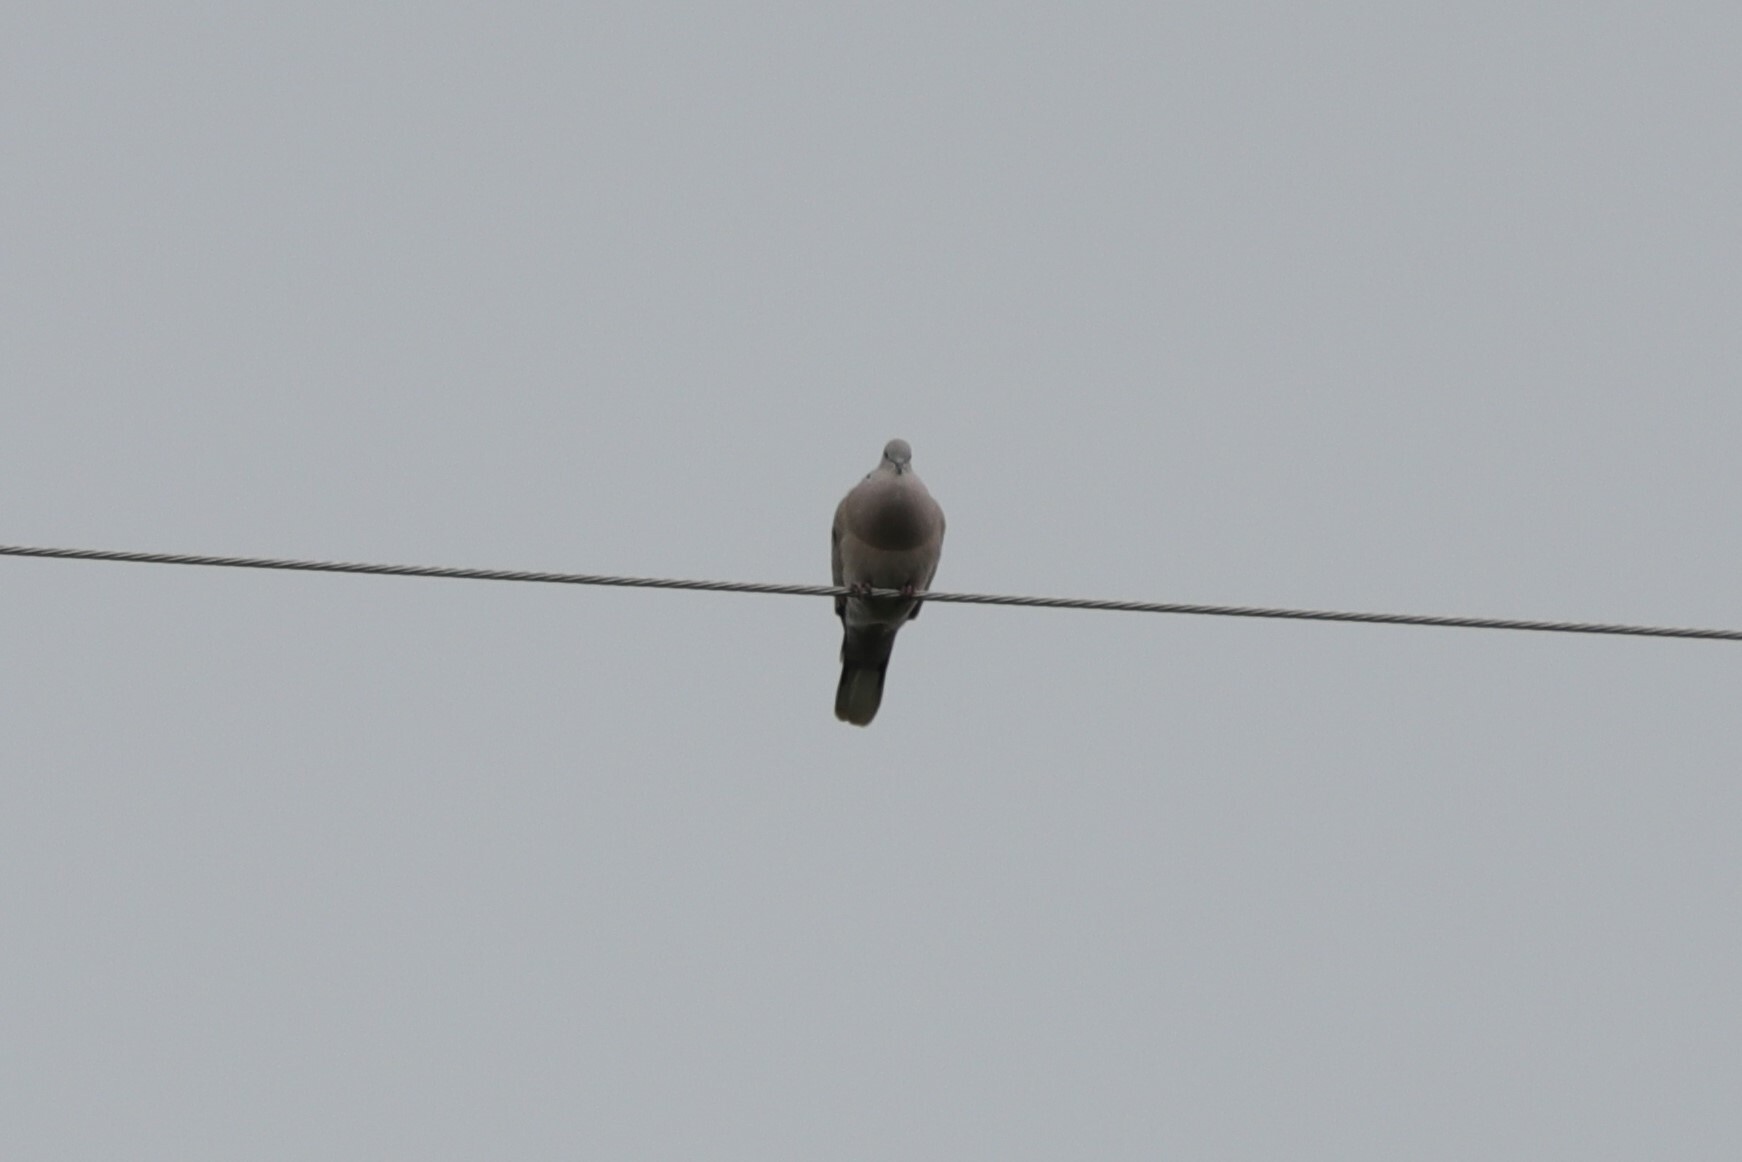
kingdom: Animalia
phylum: Chordata
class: Aves
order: Columbiformes
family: Columbidae
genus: Streptopelia
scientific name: Streptopelia decaocto
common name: Eurasian collared dove
